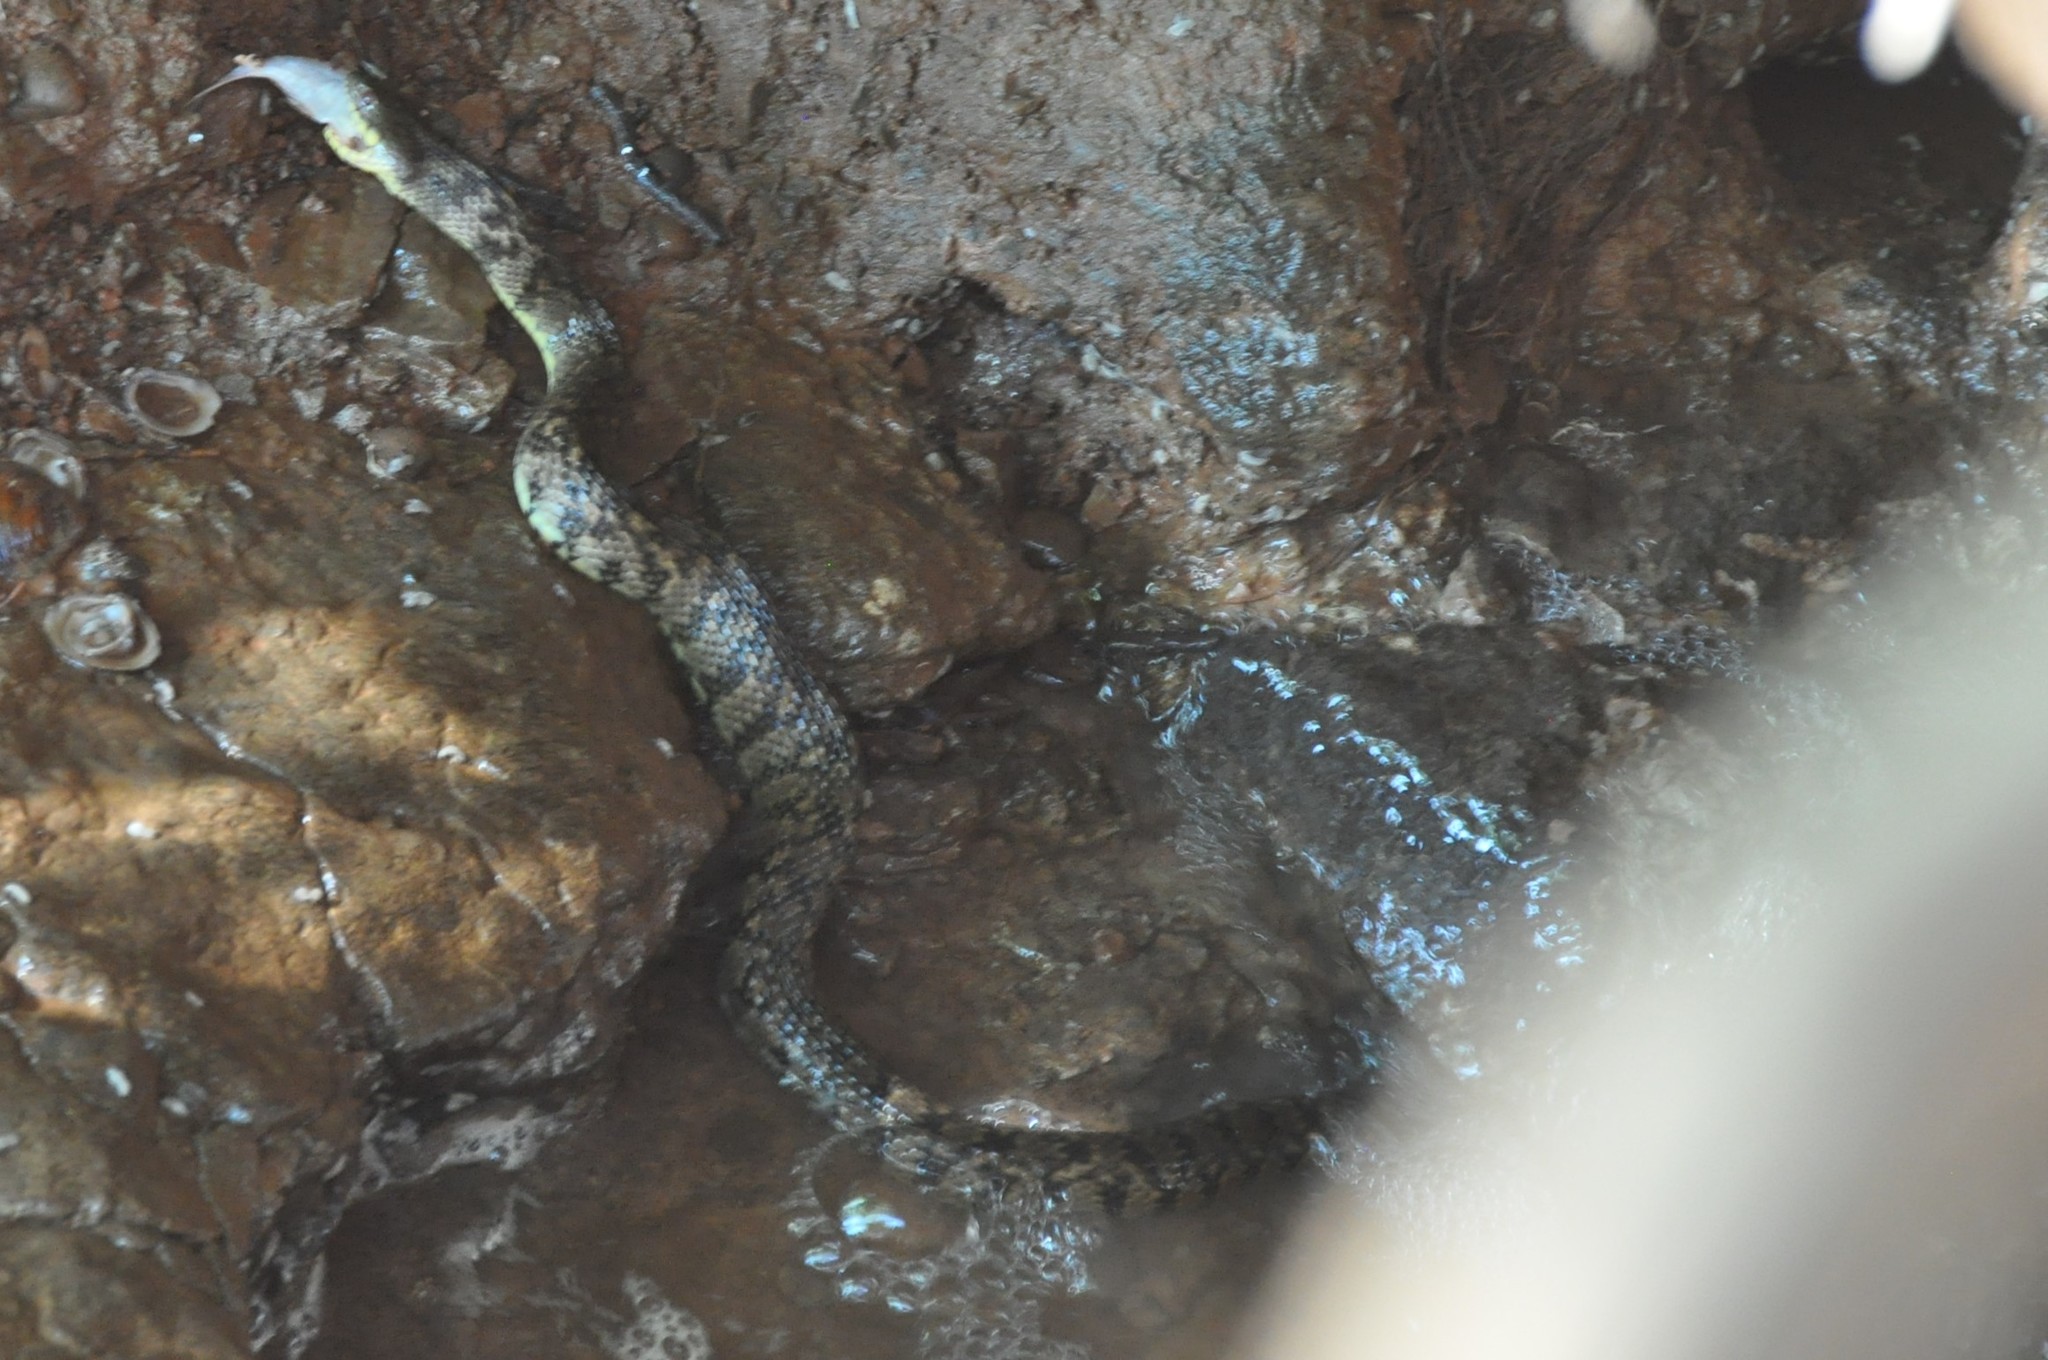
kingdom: Animalia
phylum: Chordata
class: Squamata
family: Colubridae
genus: Nerodia
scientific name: Nerodia rhombifer
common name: Diamondback water snake
